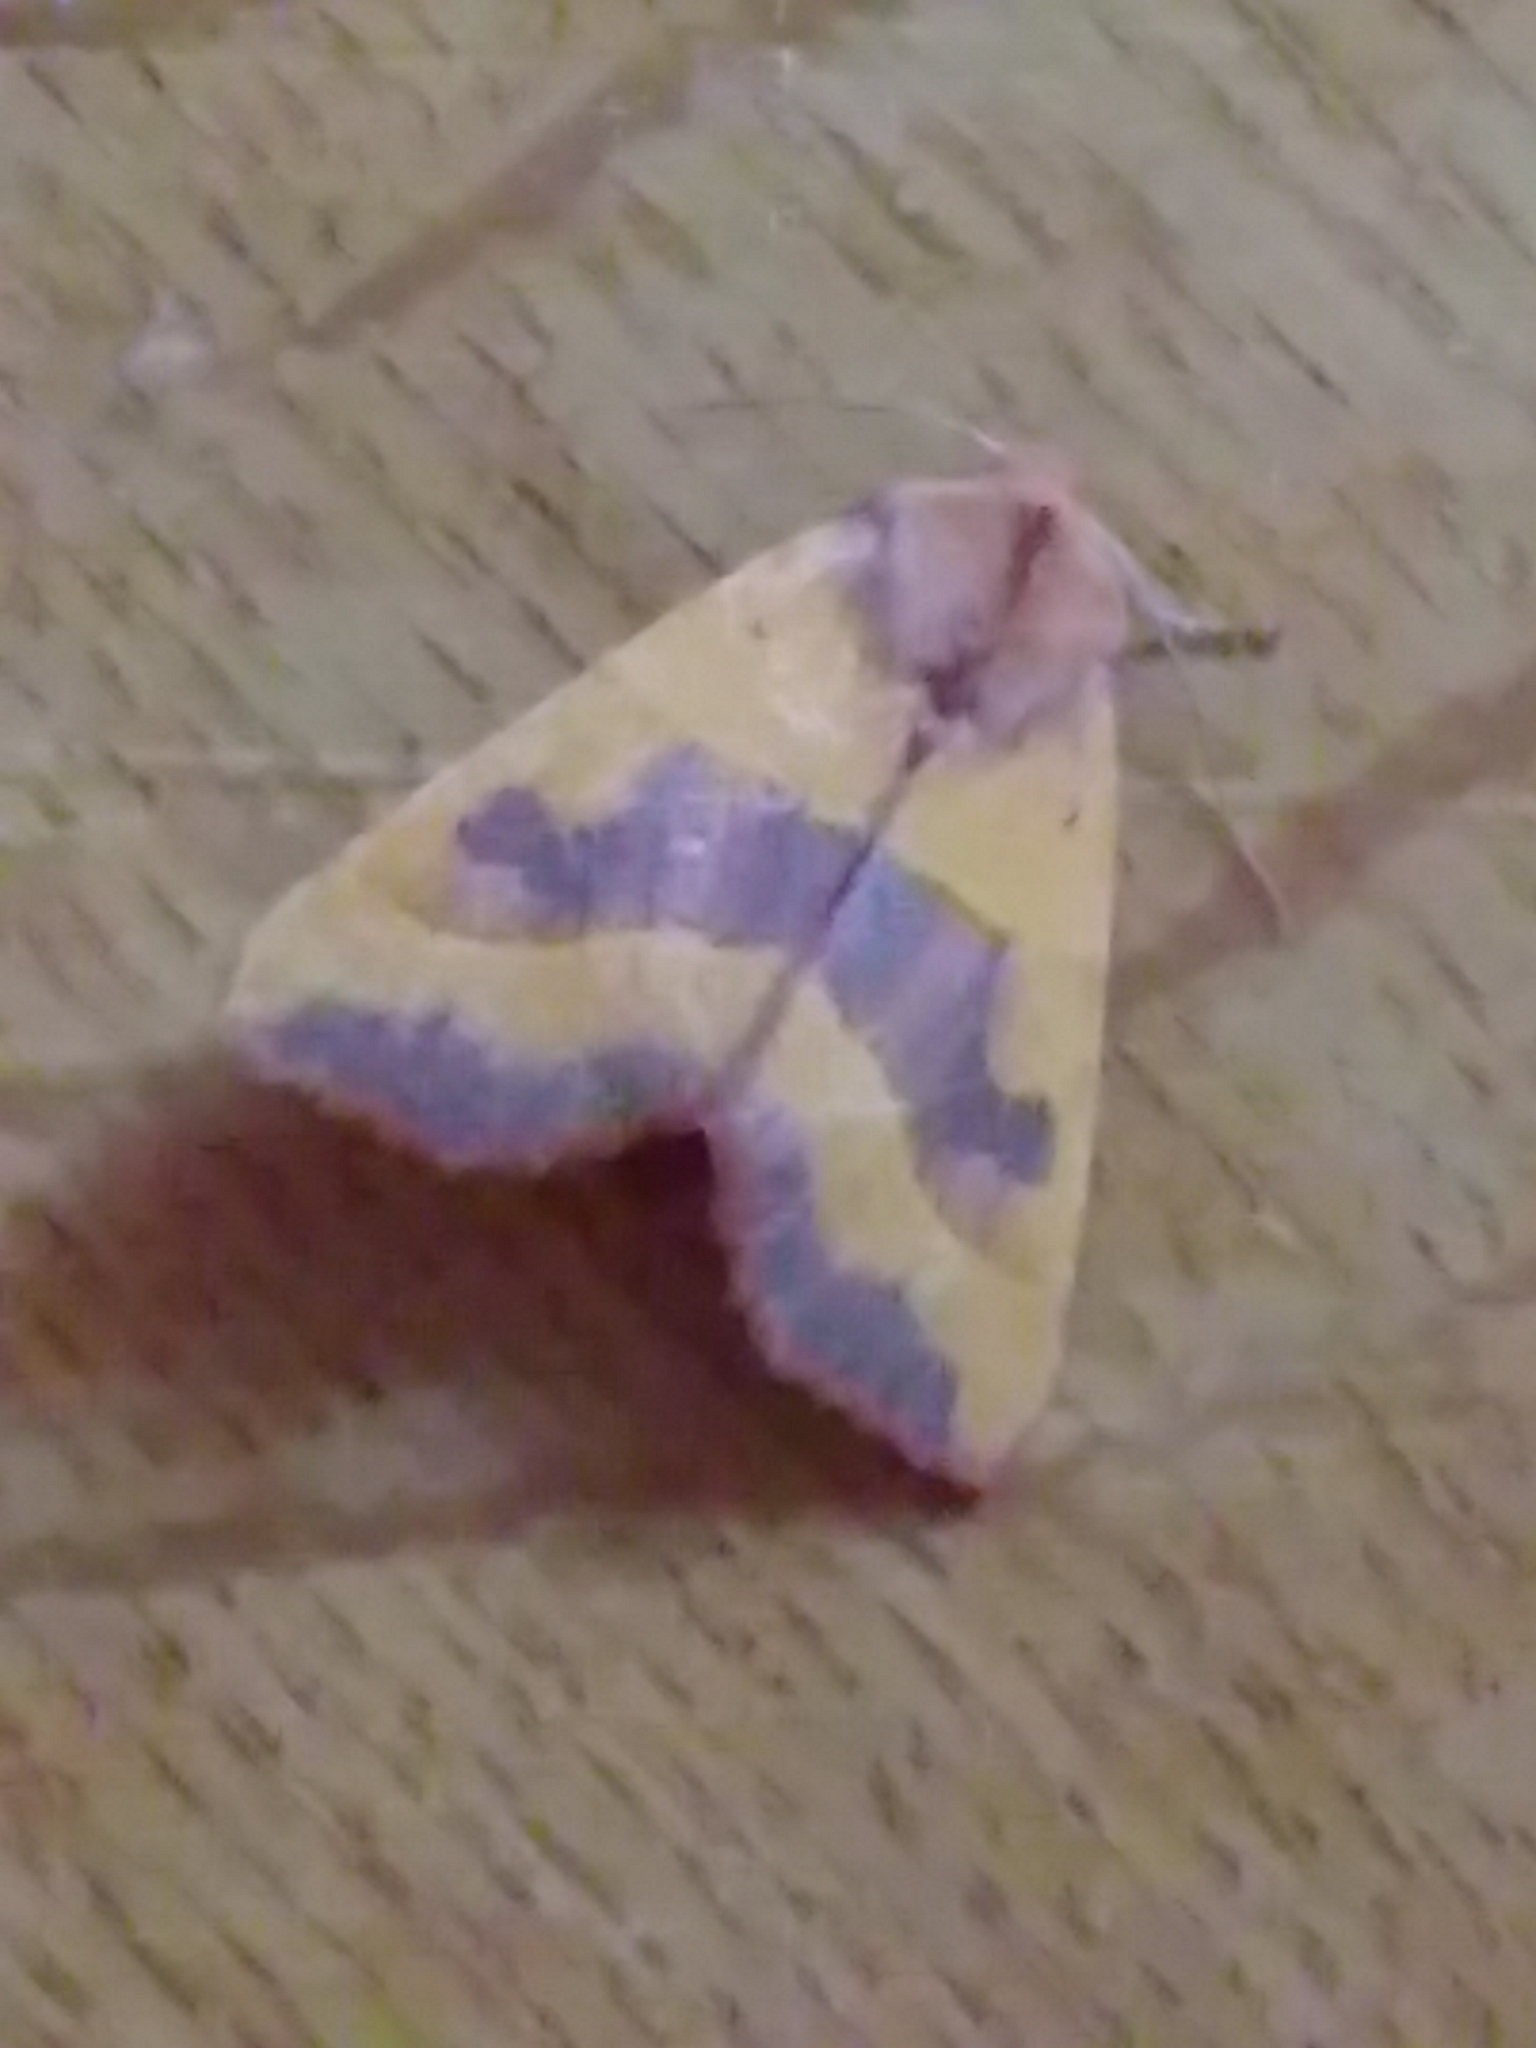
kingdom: Animalia
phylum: Arthropoda
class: Insecta
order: Lepidoptera
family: Noctuidae
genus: Atethmia
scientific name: Atethmia centrago
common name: Centre-barred sallow
